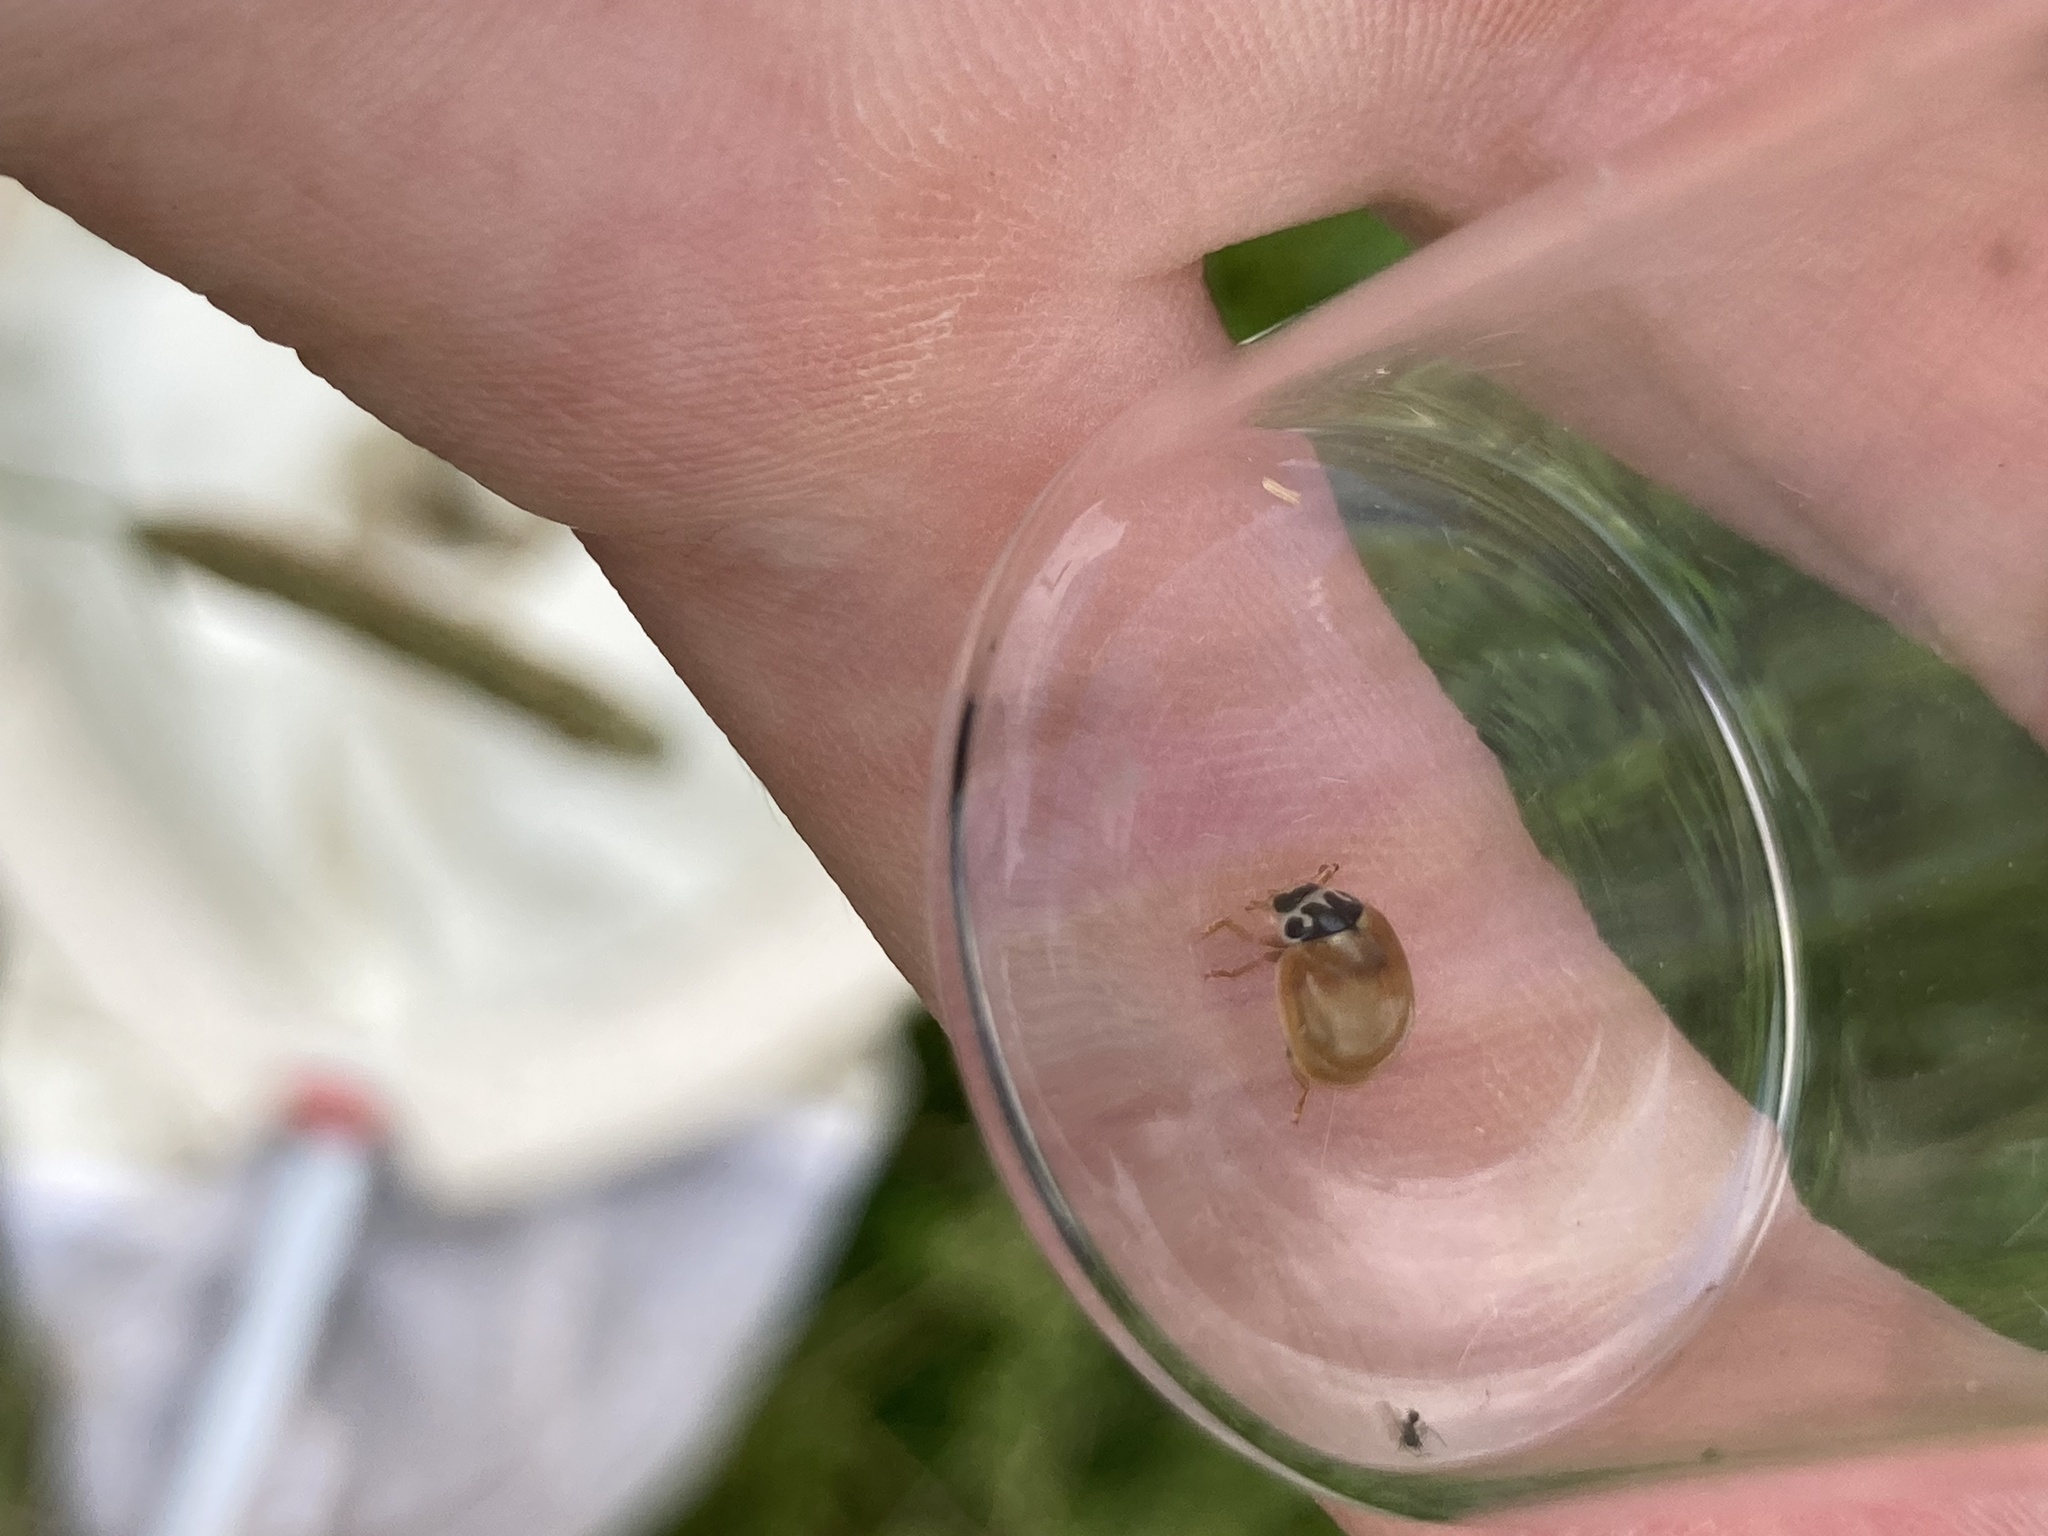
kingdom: Animalia
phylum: Arthropoda
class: Insecta
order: Coleoptera
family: Coccinellidae
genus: Cycloneda
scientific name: Cycloneda munda
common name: Polished lady beetle
